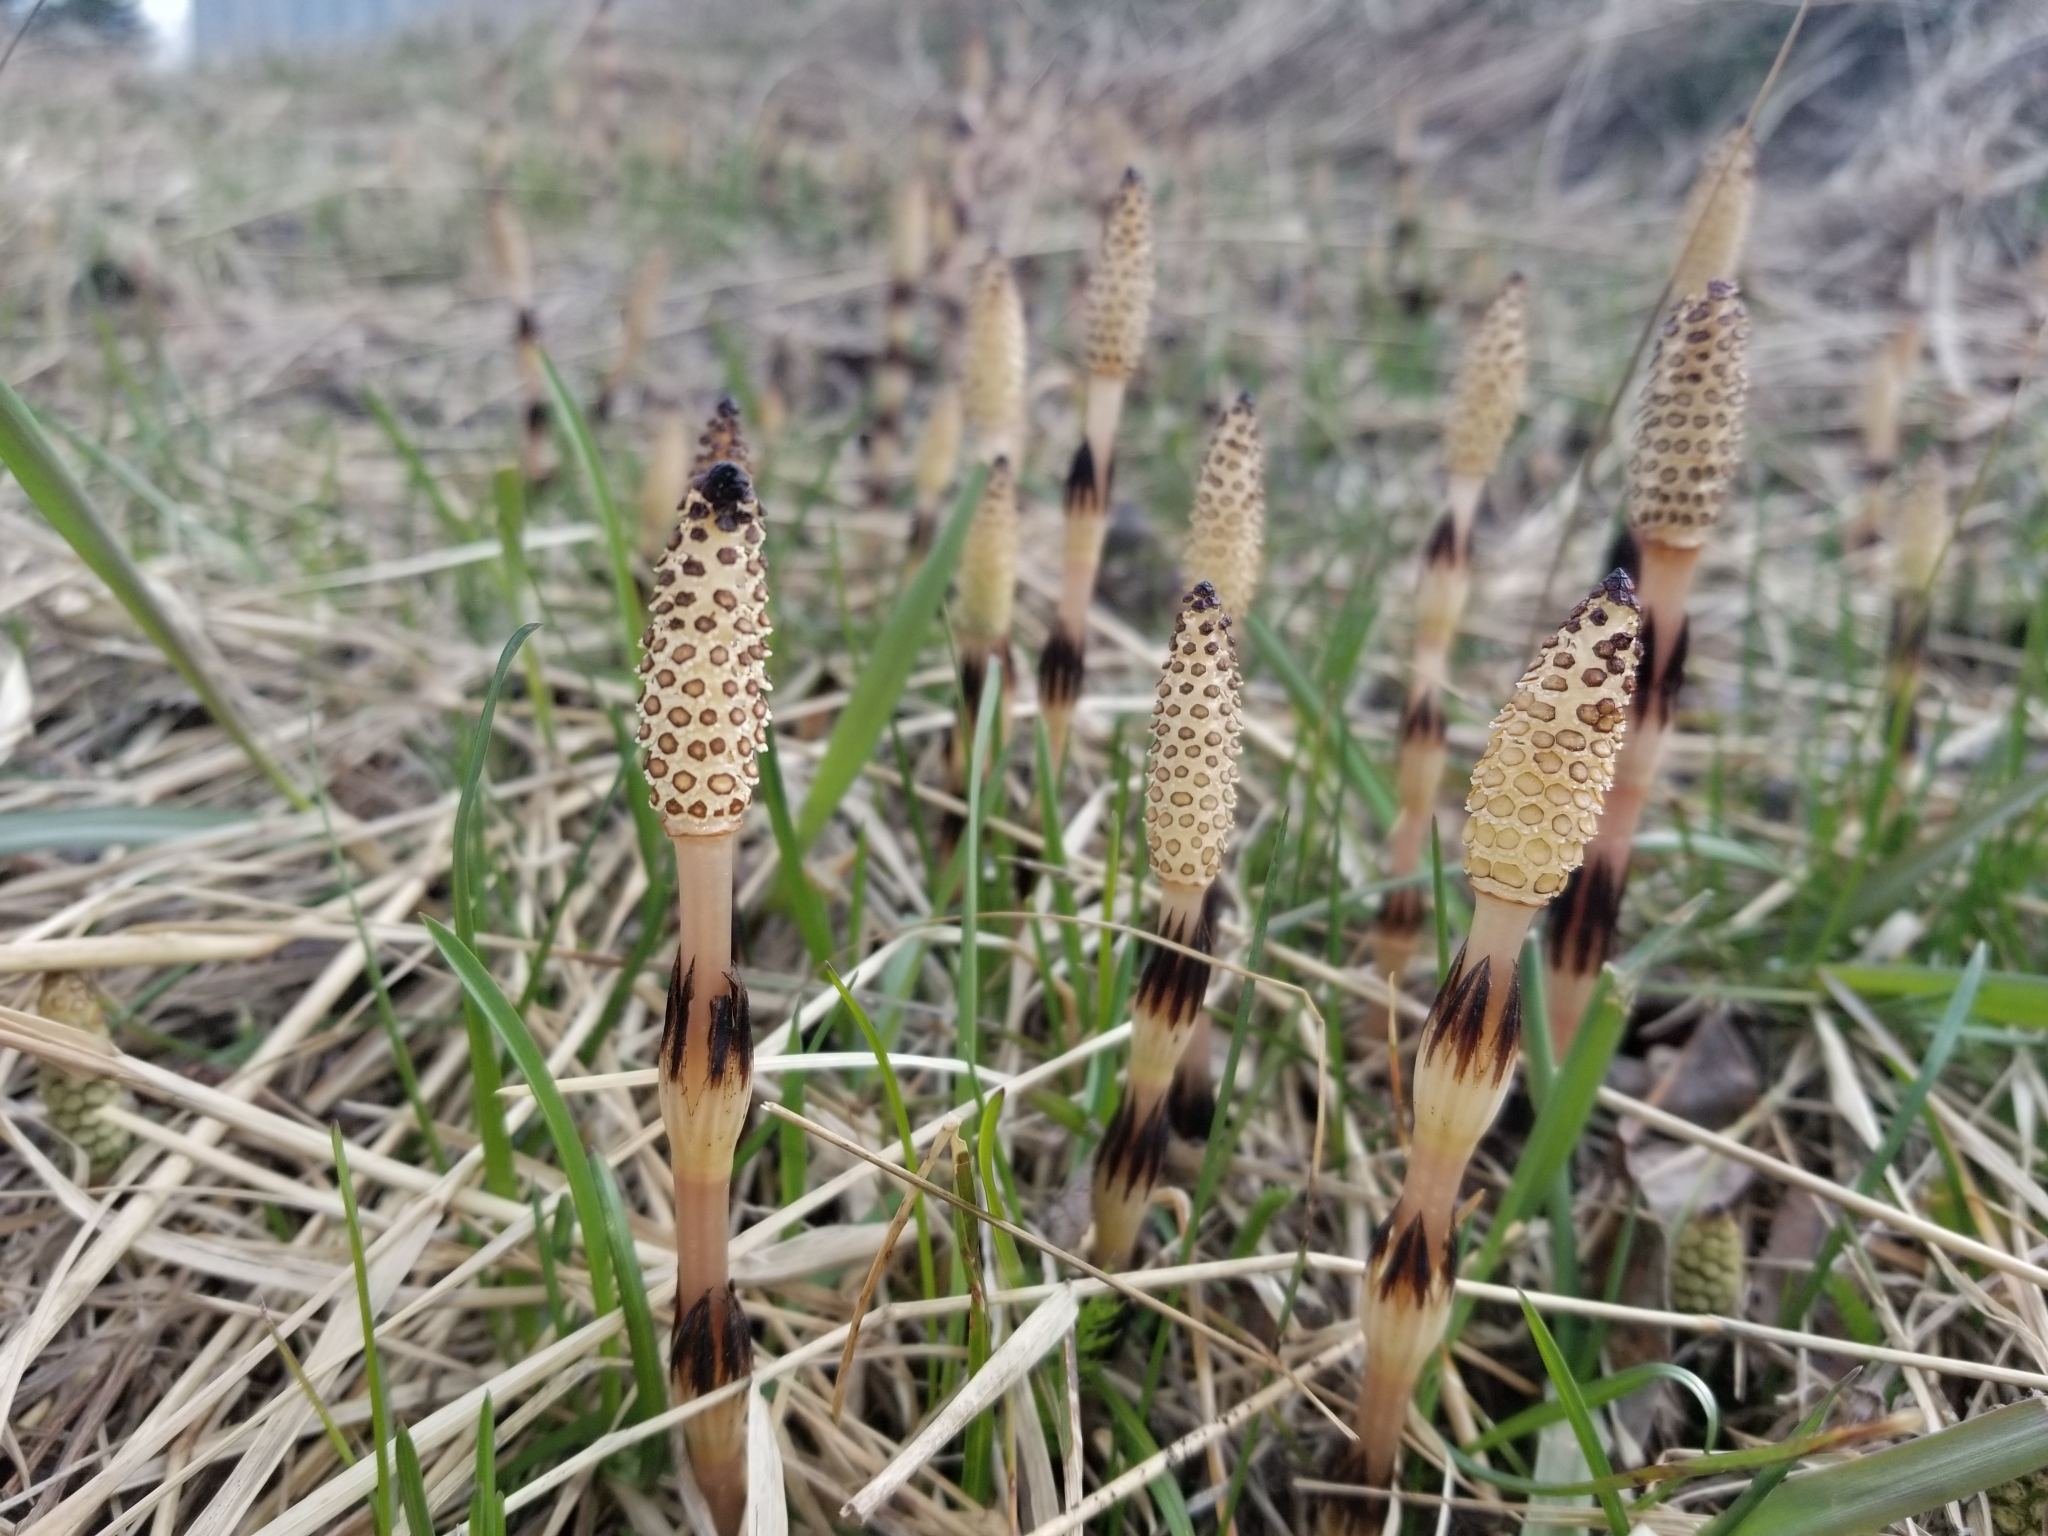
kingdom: Plantae
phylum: Tracheophyta
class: Polypodiopsida
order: Equisetales
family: Equisetaceae
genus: Equisetum
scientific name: Equisetum arvense
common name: Field horsetail
